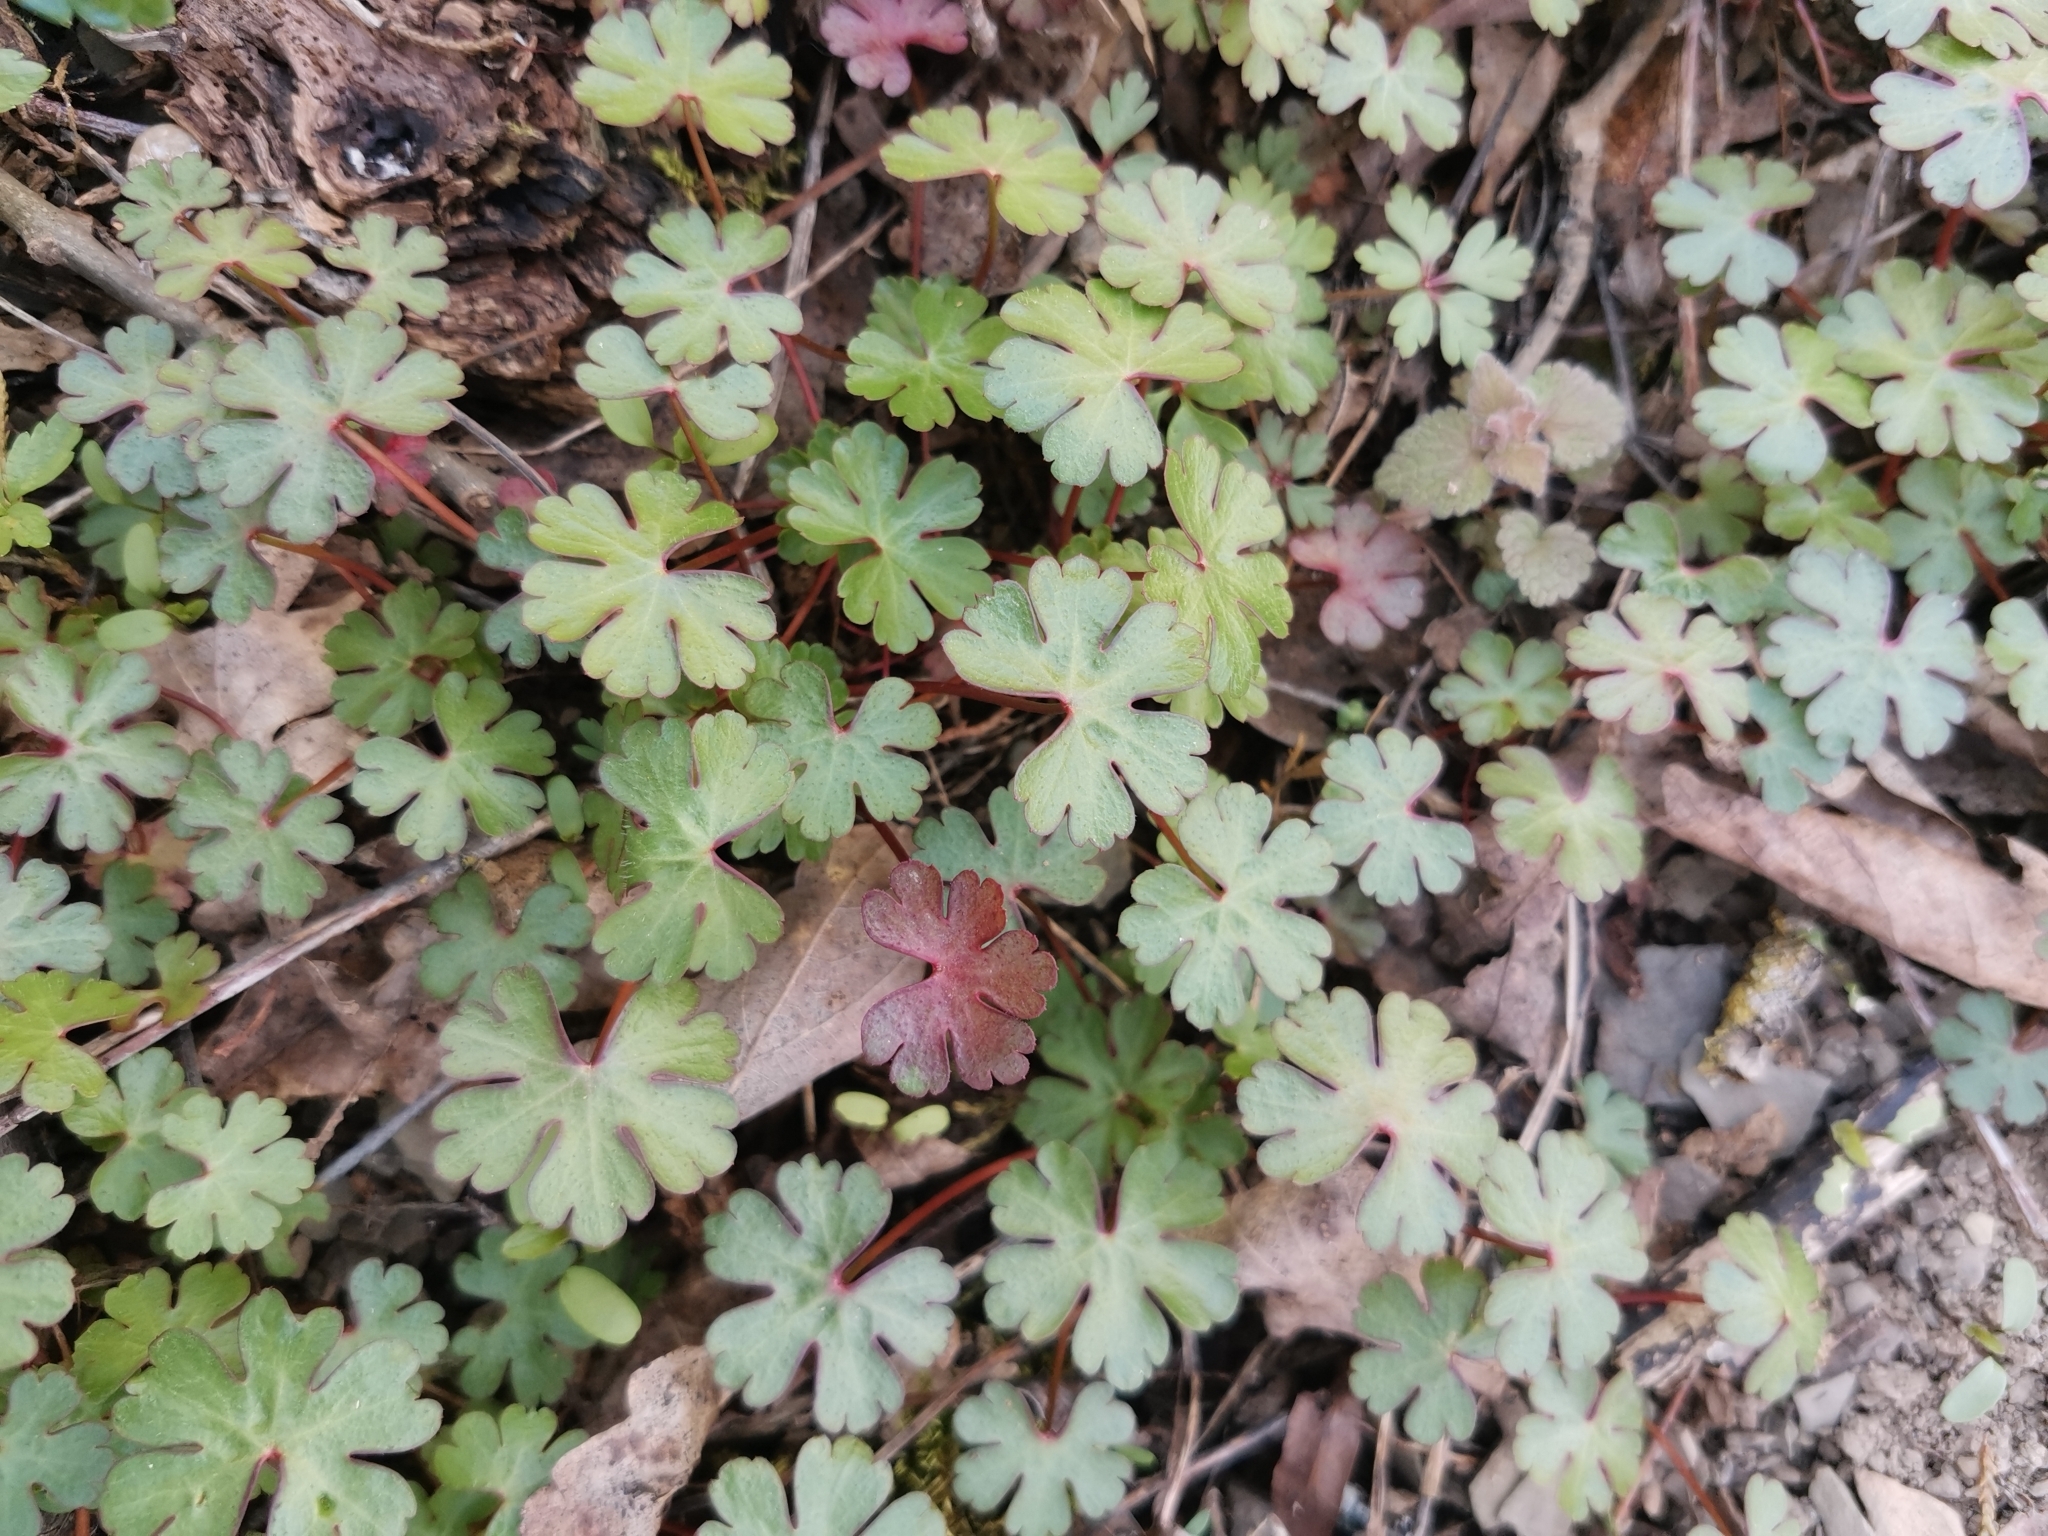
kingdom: Plantae
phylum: Tracheophyta
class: Magnoliopsida
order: Geraniales
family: Geraniaceae
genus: Geranium
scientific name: Geranium lucidum
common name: Shining crane's-bill
